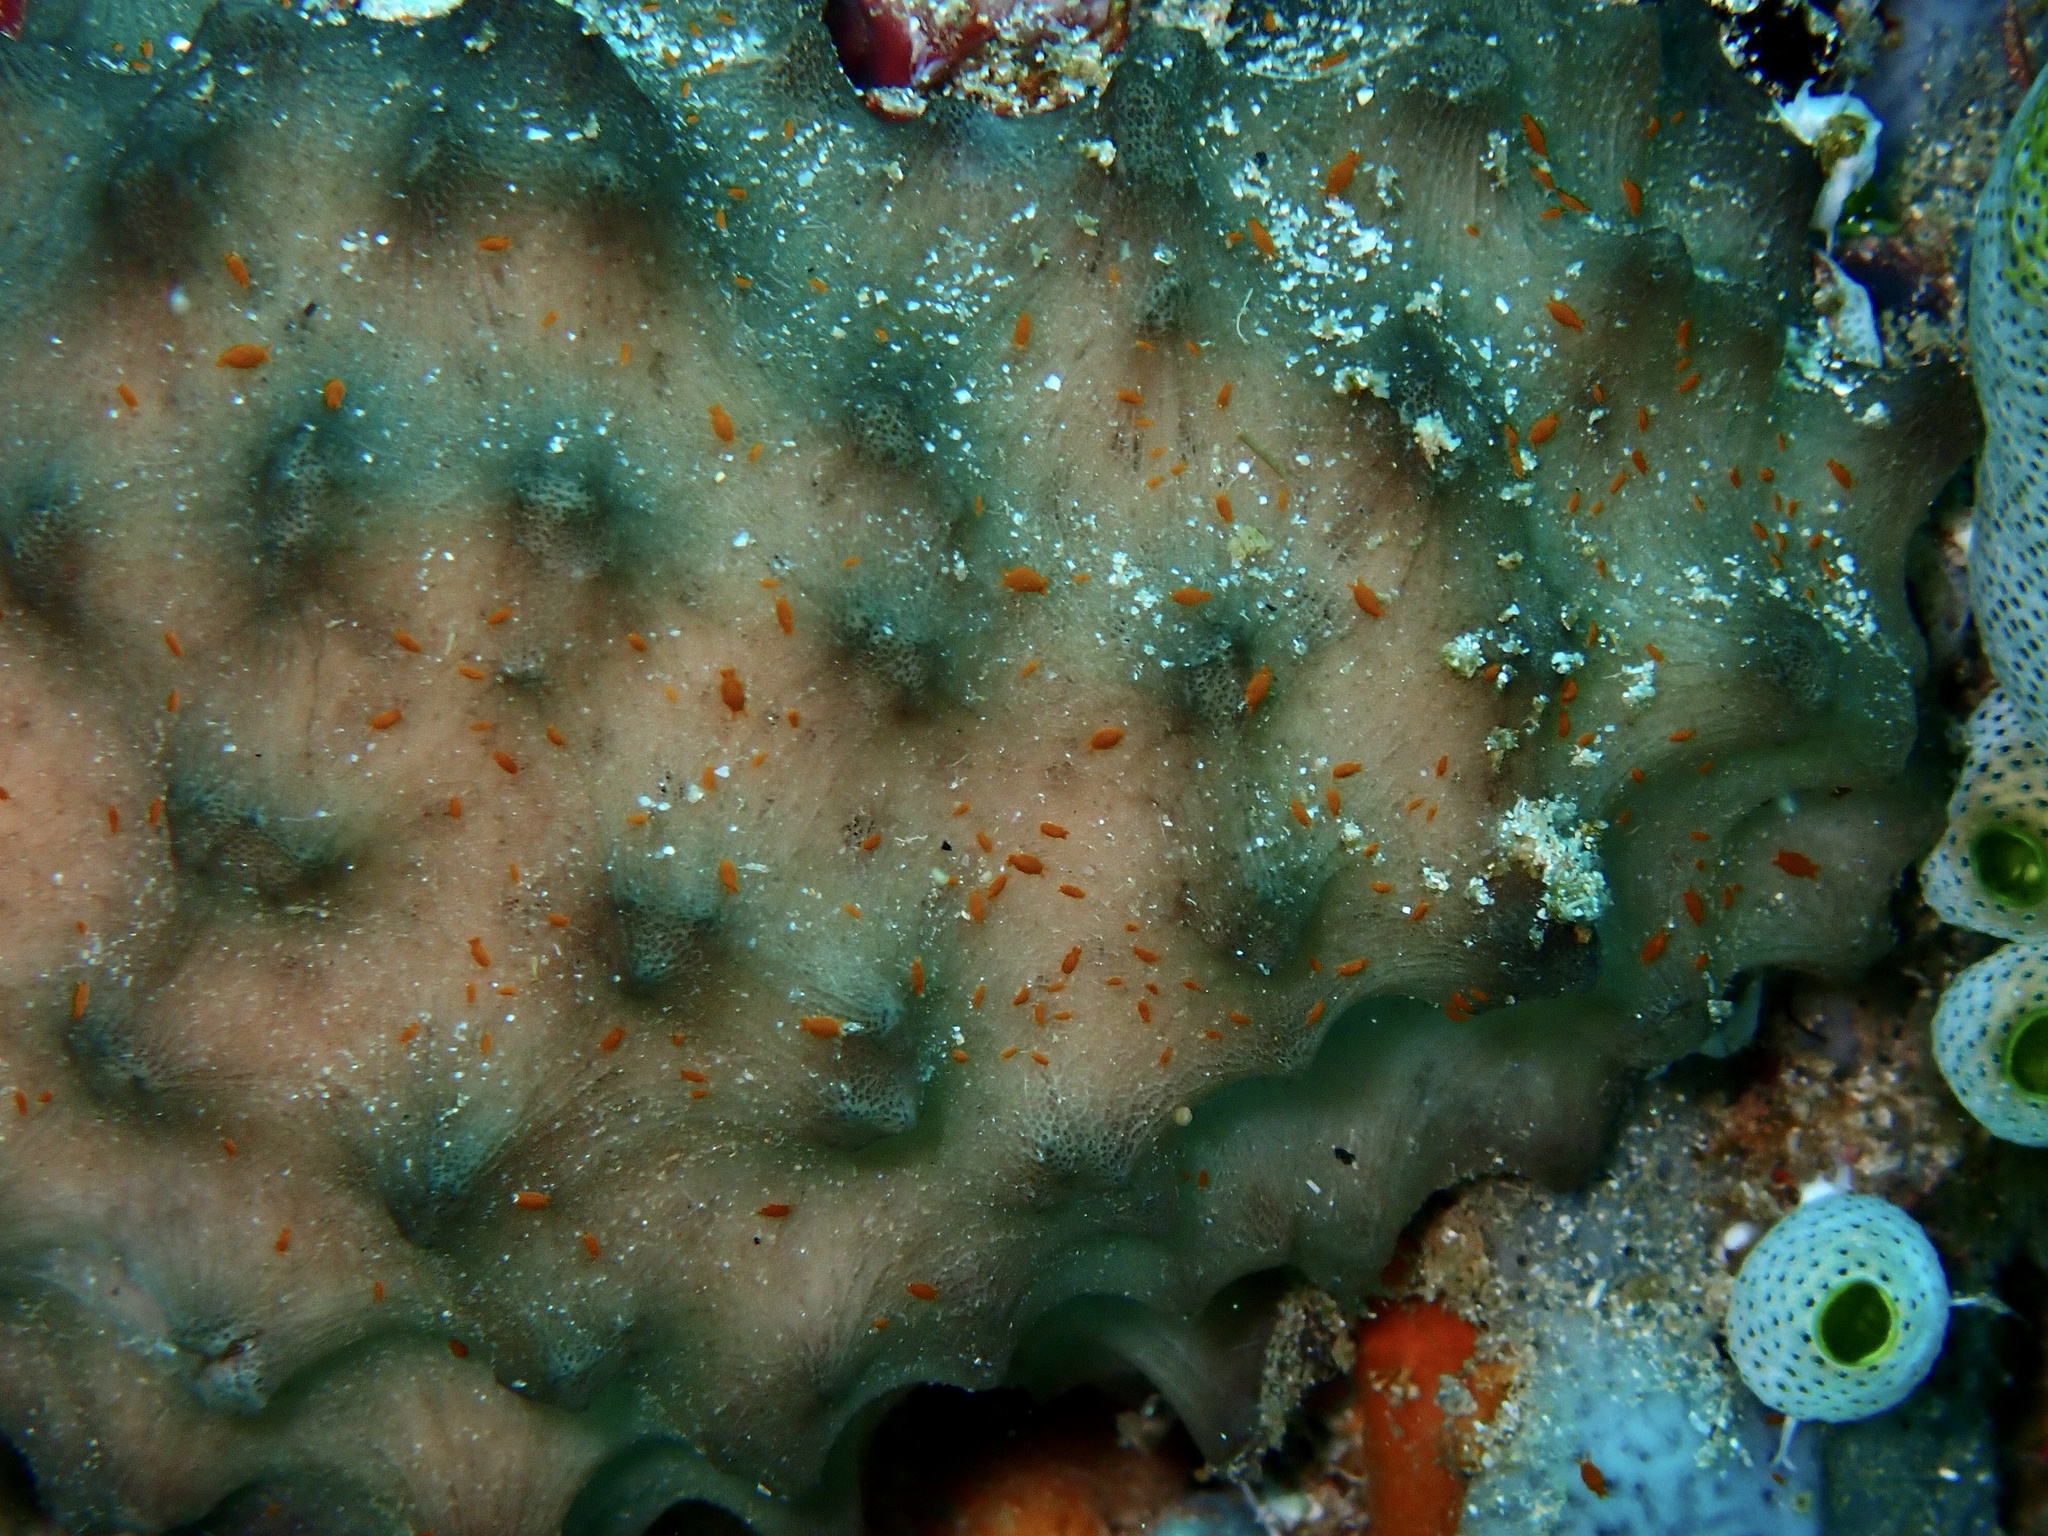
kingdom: Animalia
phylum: Porifera
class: Demospongiae
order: Dictyoceratida
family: Irciniidae
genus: Ircinia
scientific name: Ircinia colossa
